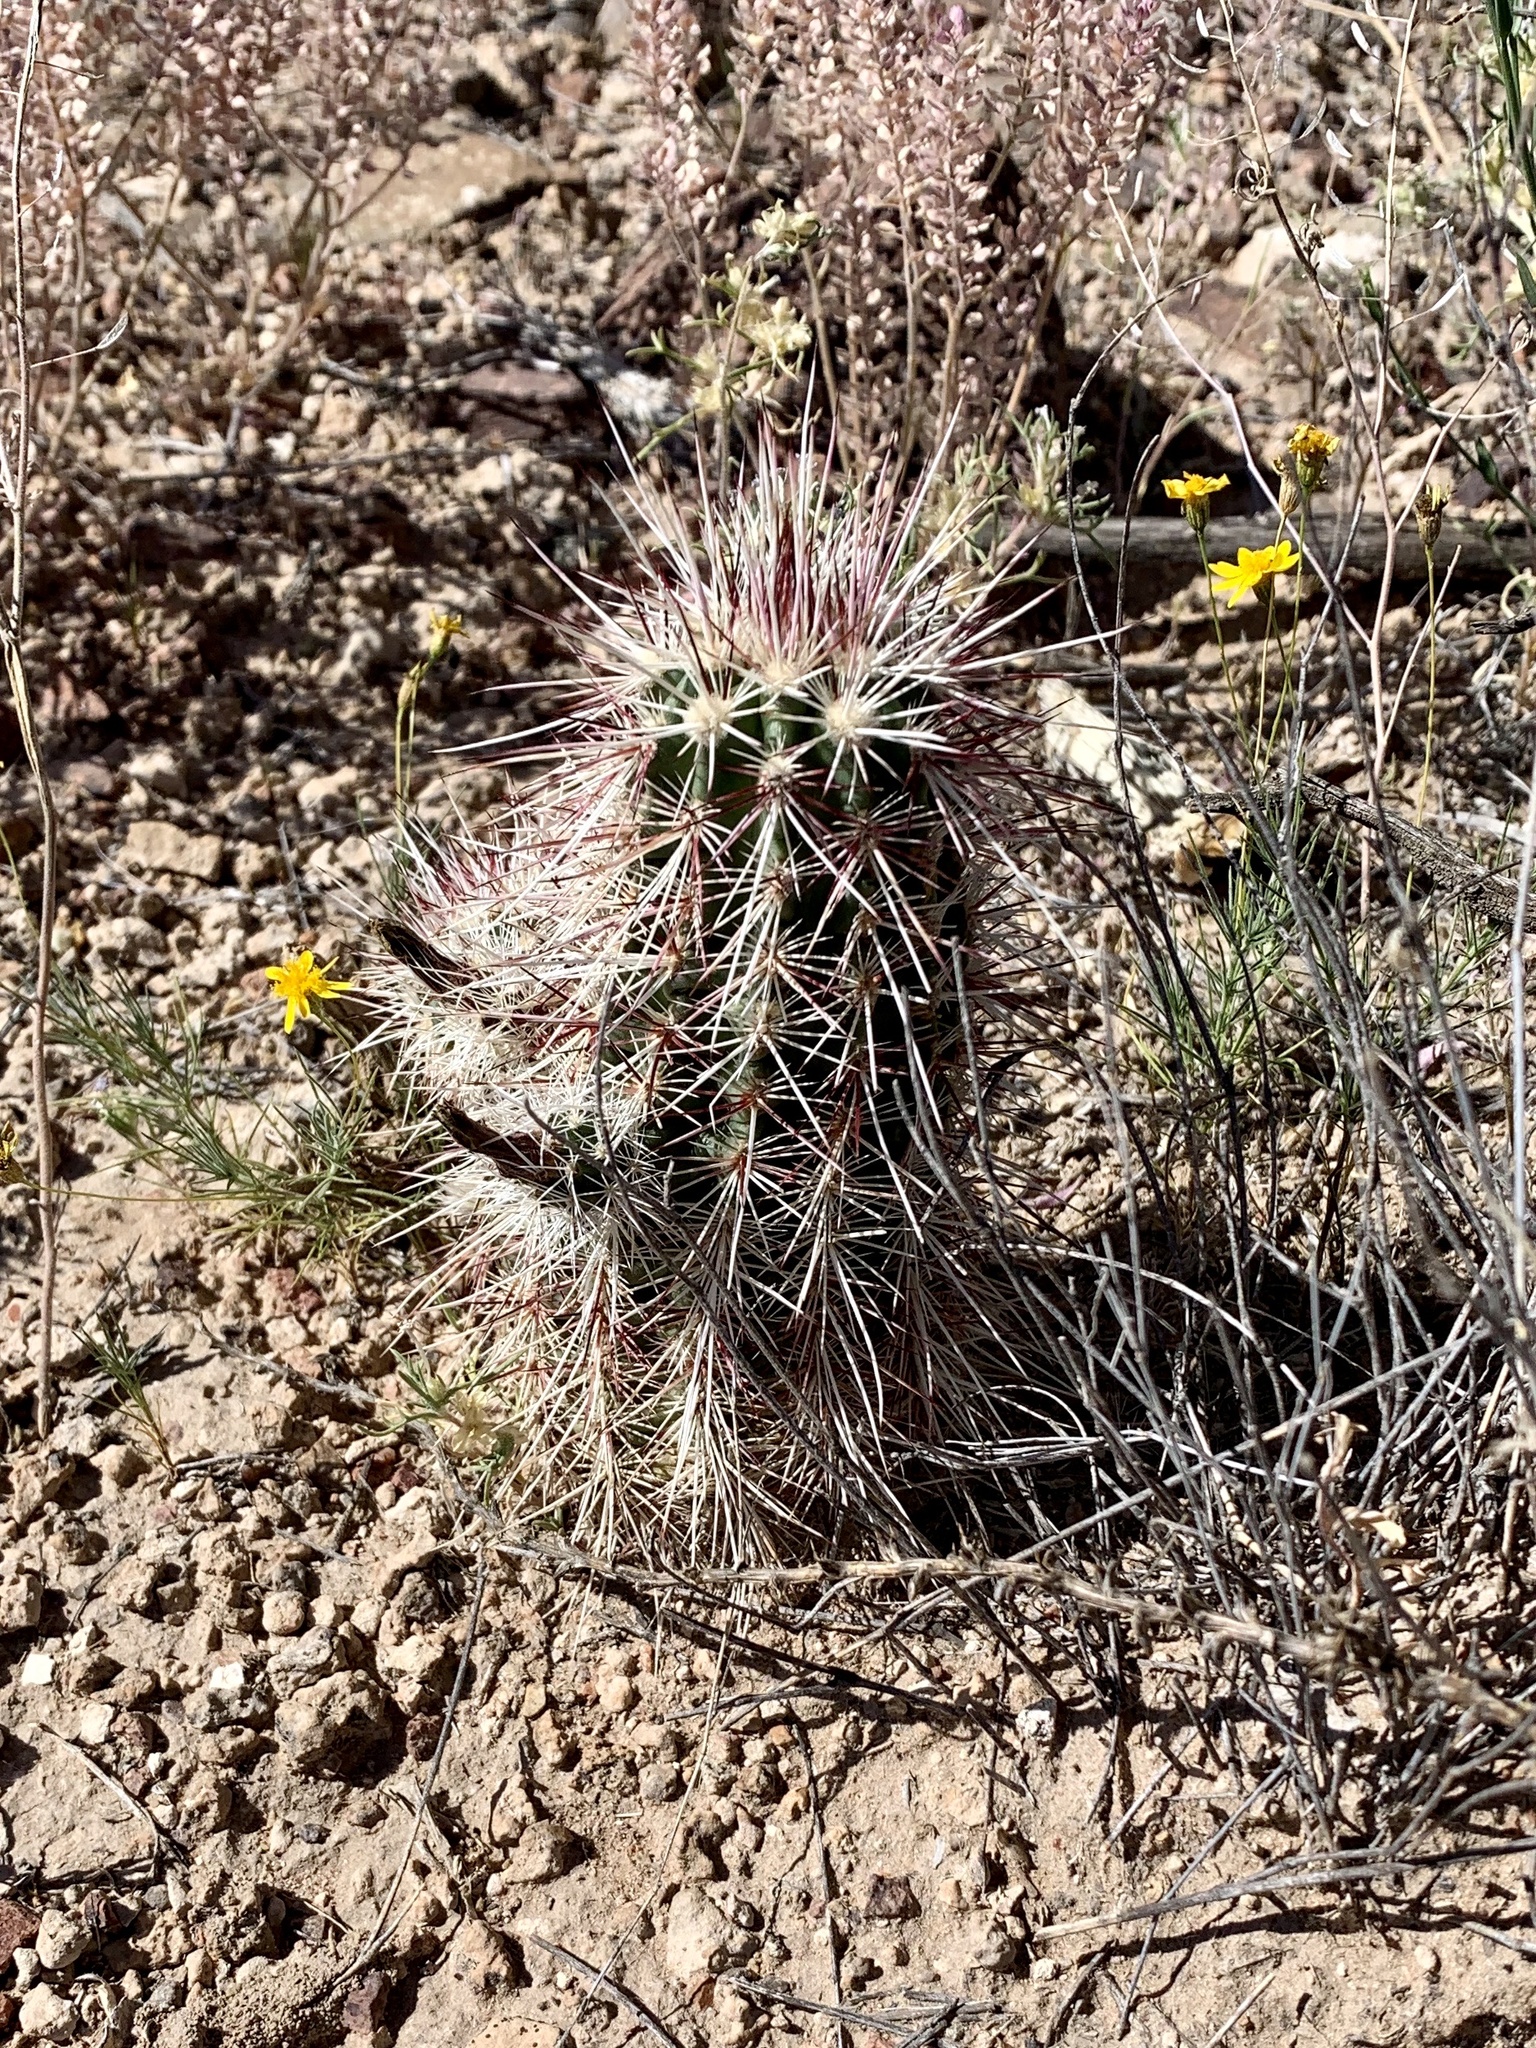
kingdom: Plantae
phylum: Tracheophyta
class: Magnoliopsida
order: Caryophyllales
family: Cactaceae
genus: Echinocereus
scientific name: Echinocereus viridiflorus
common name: Nylon hedgehog cactus
